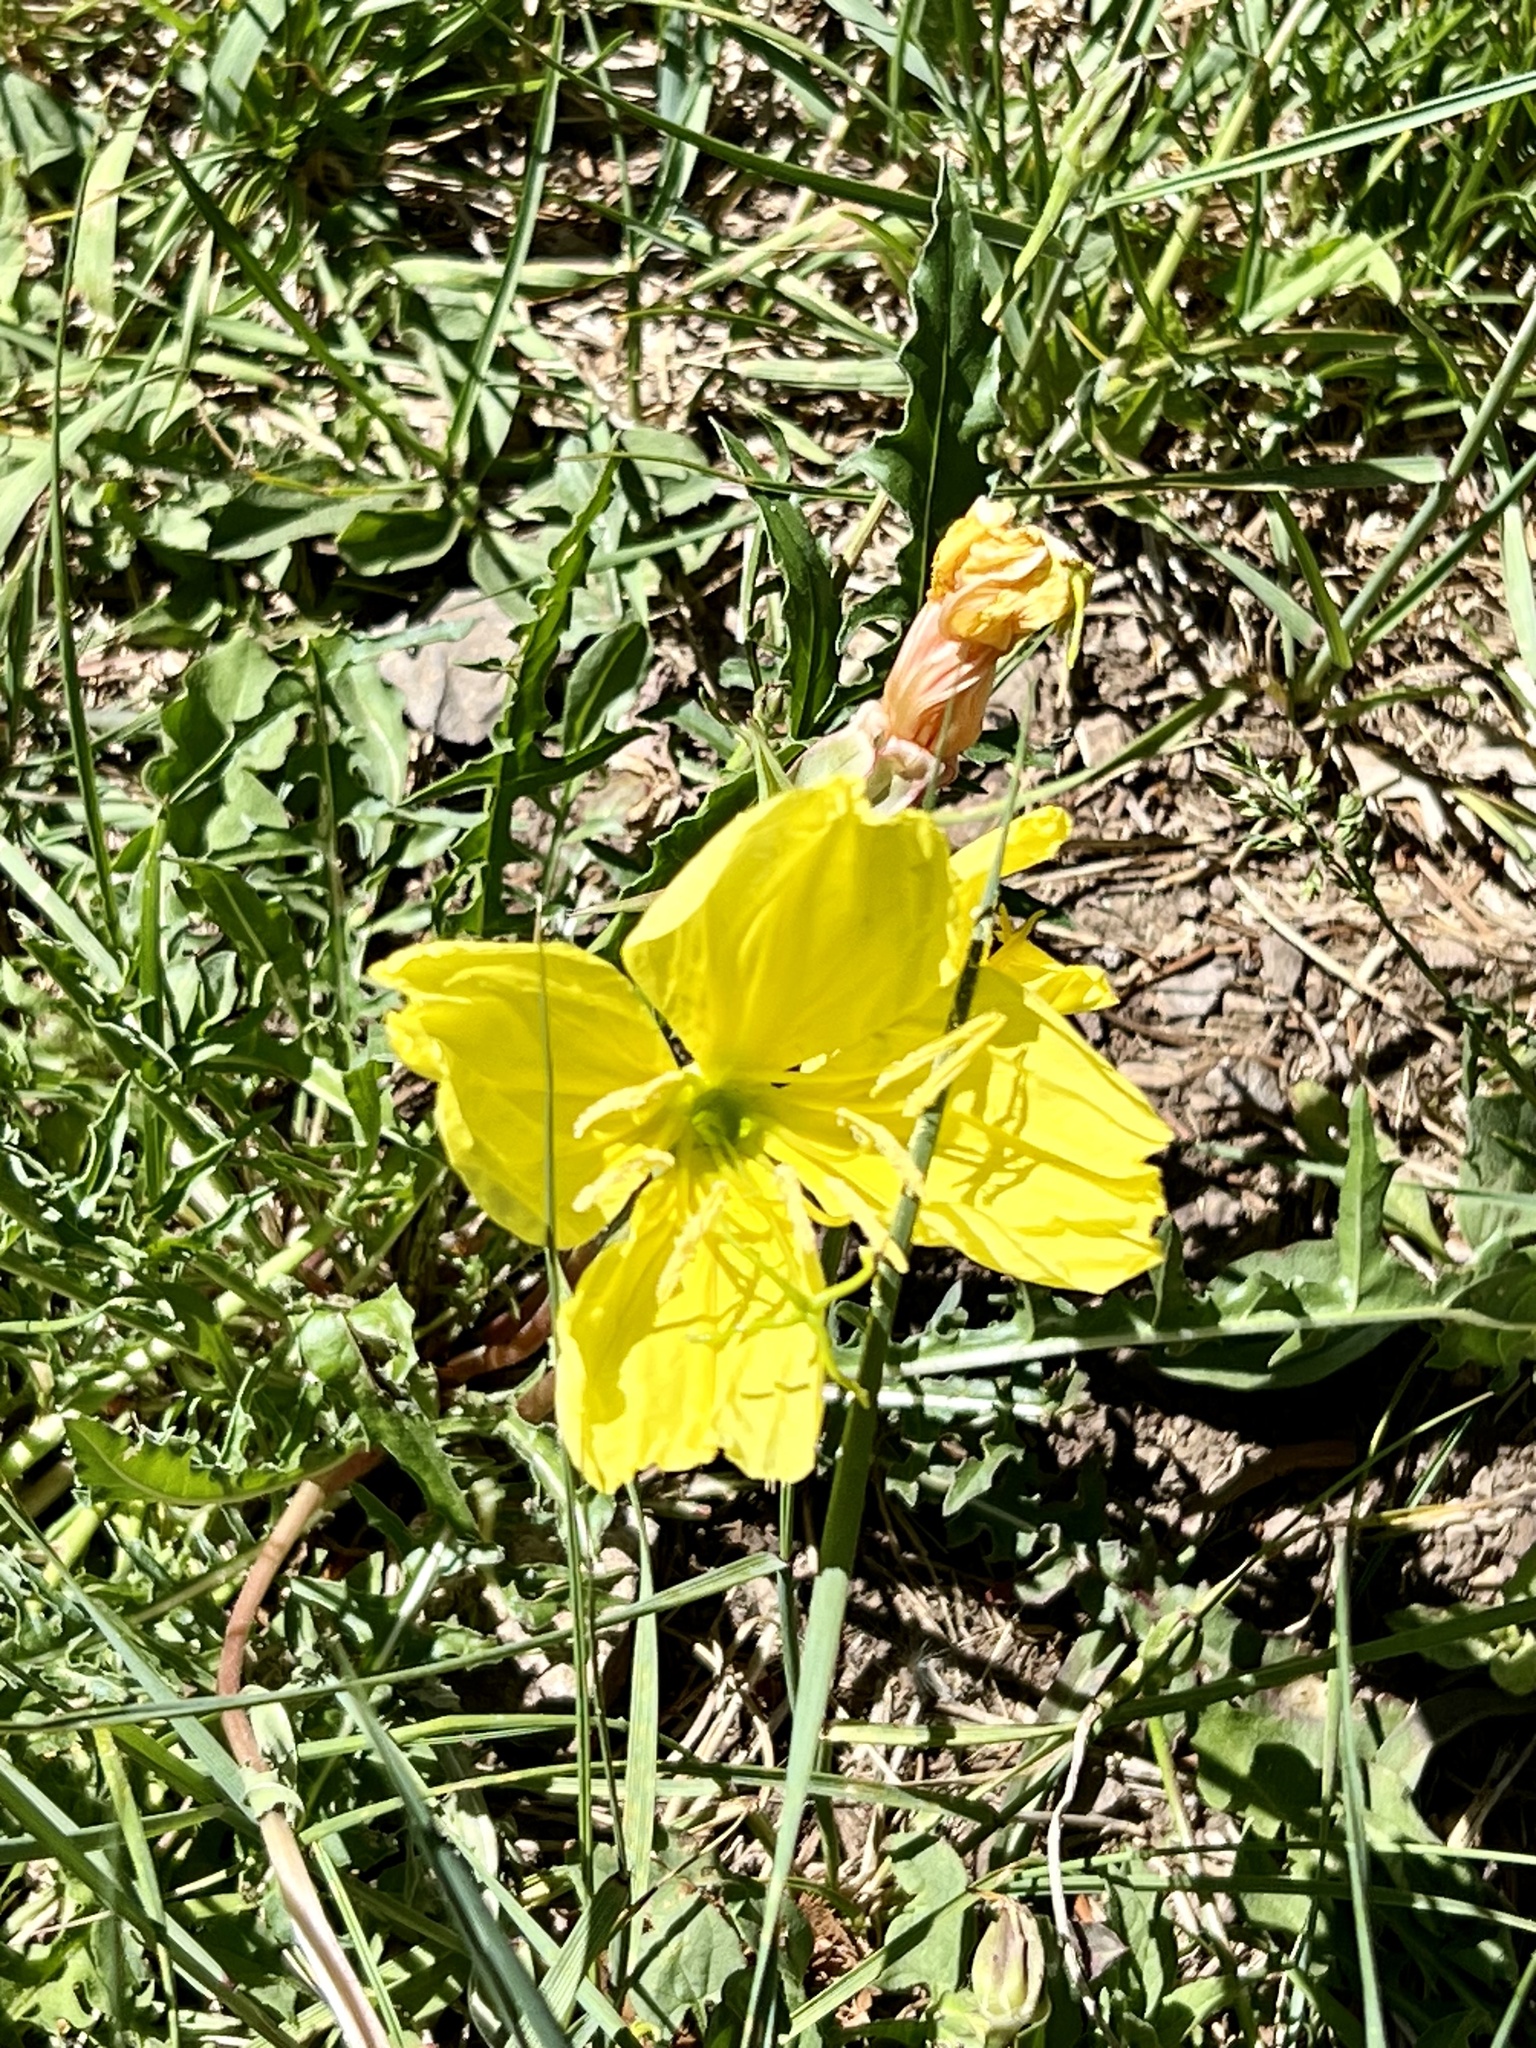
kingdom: Plantae
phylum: Tracheophyta
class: Magnoliopsida
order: Myrtales
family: Onagraceae
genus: Oenothera
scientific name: Oenothera hartwegii
